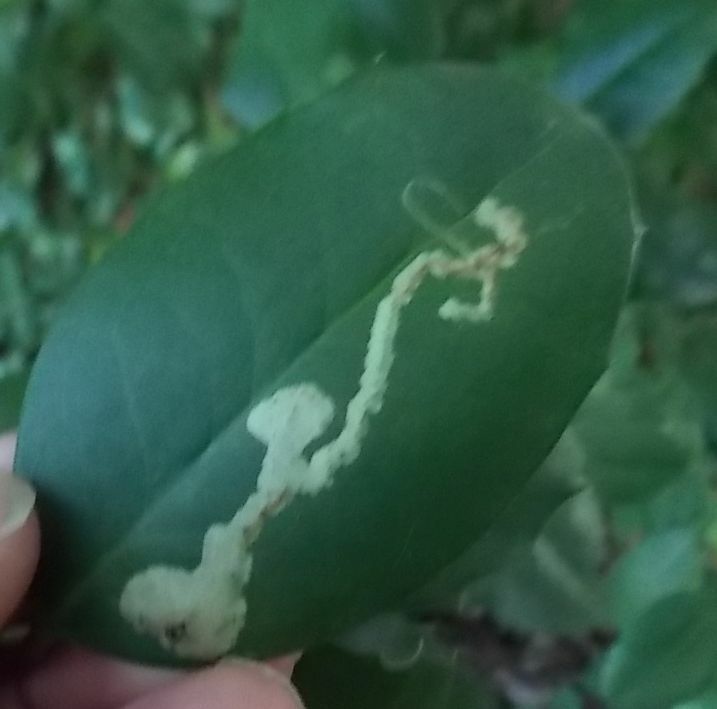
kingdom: Animalia
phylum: Arthropoda
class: Insecta
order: Diptera
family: Agromyzidae
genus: Phytomyza
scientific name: Phytomyza ilicis
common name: Holly leafminer
